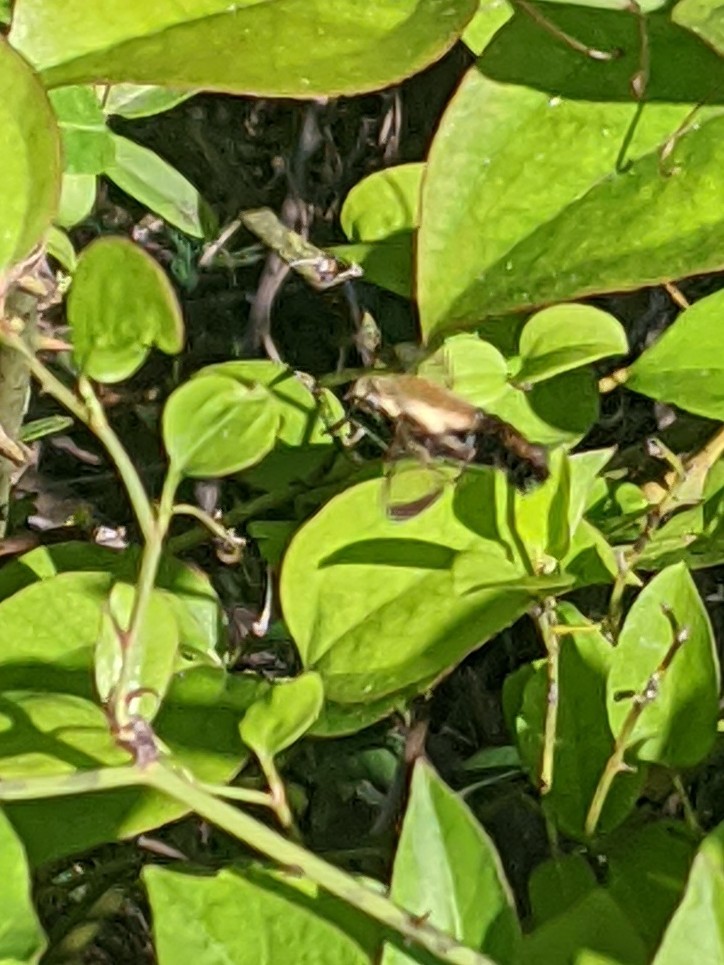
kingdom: Animalia
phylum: Arthropoda
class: Insecta
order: Lepidoptera
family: Sphingidae
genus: Hemaris
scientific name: Hemaris diffinis
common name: Bumblebee moth
